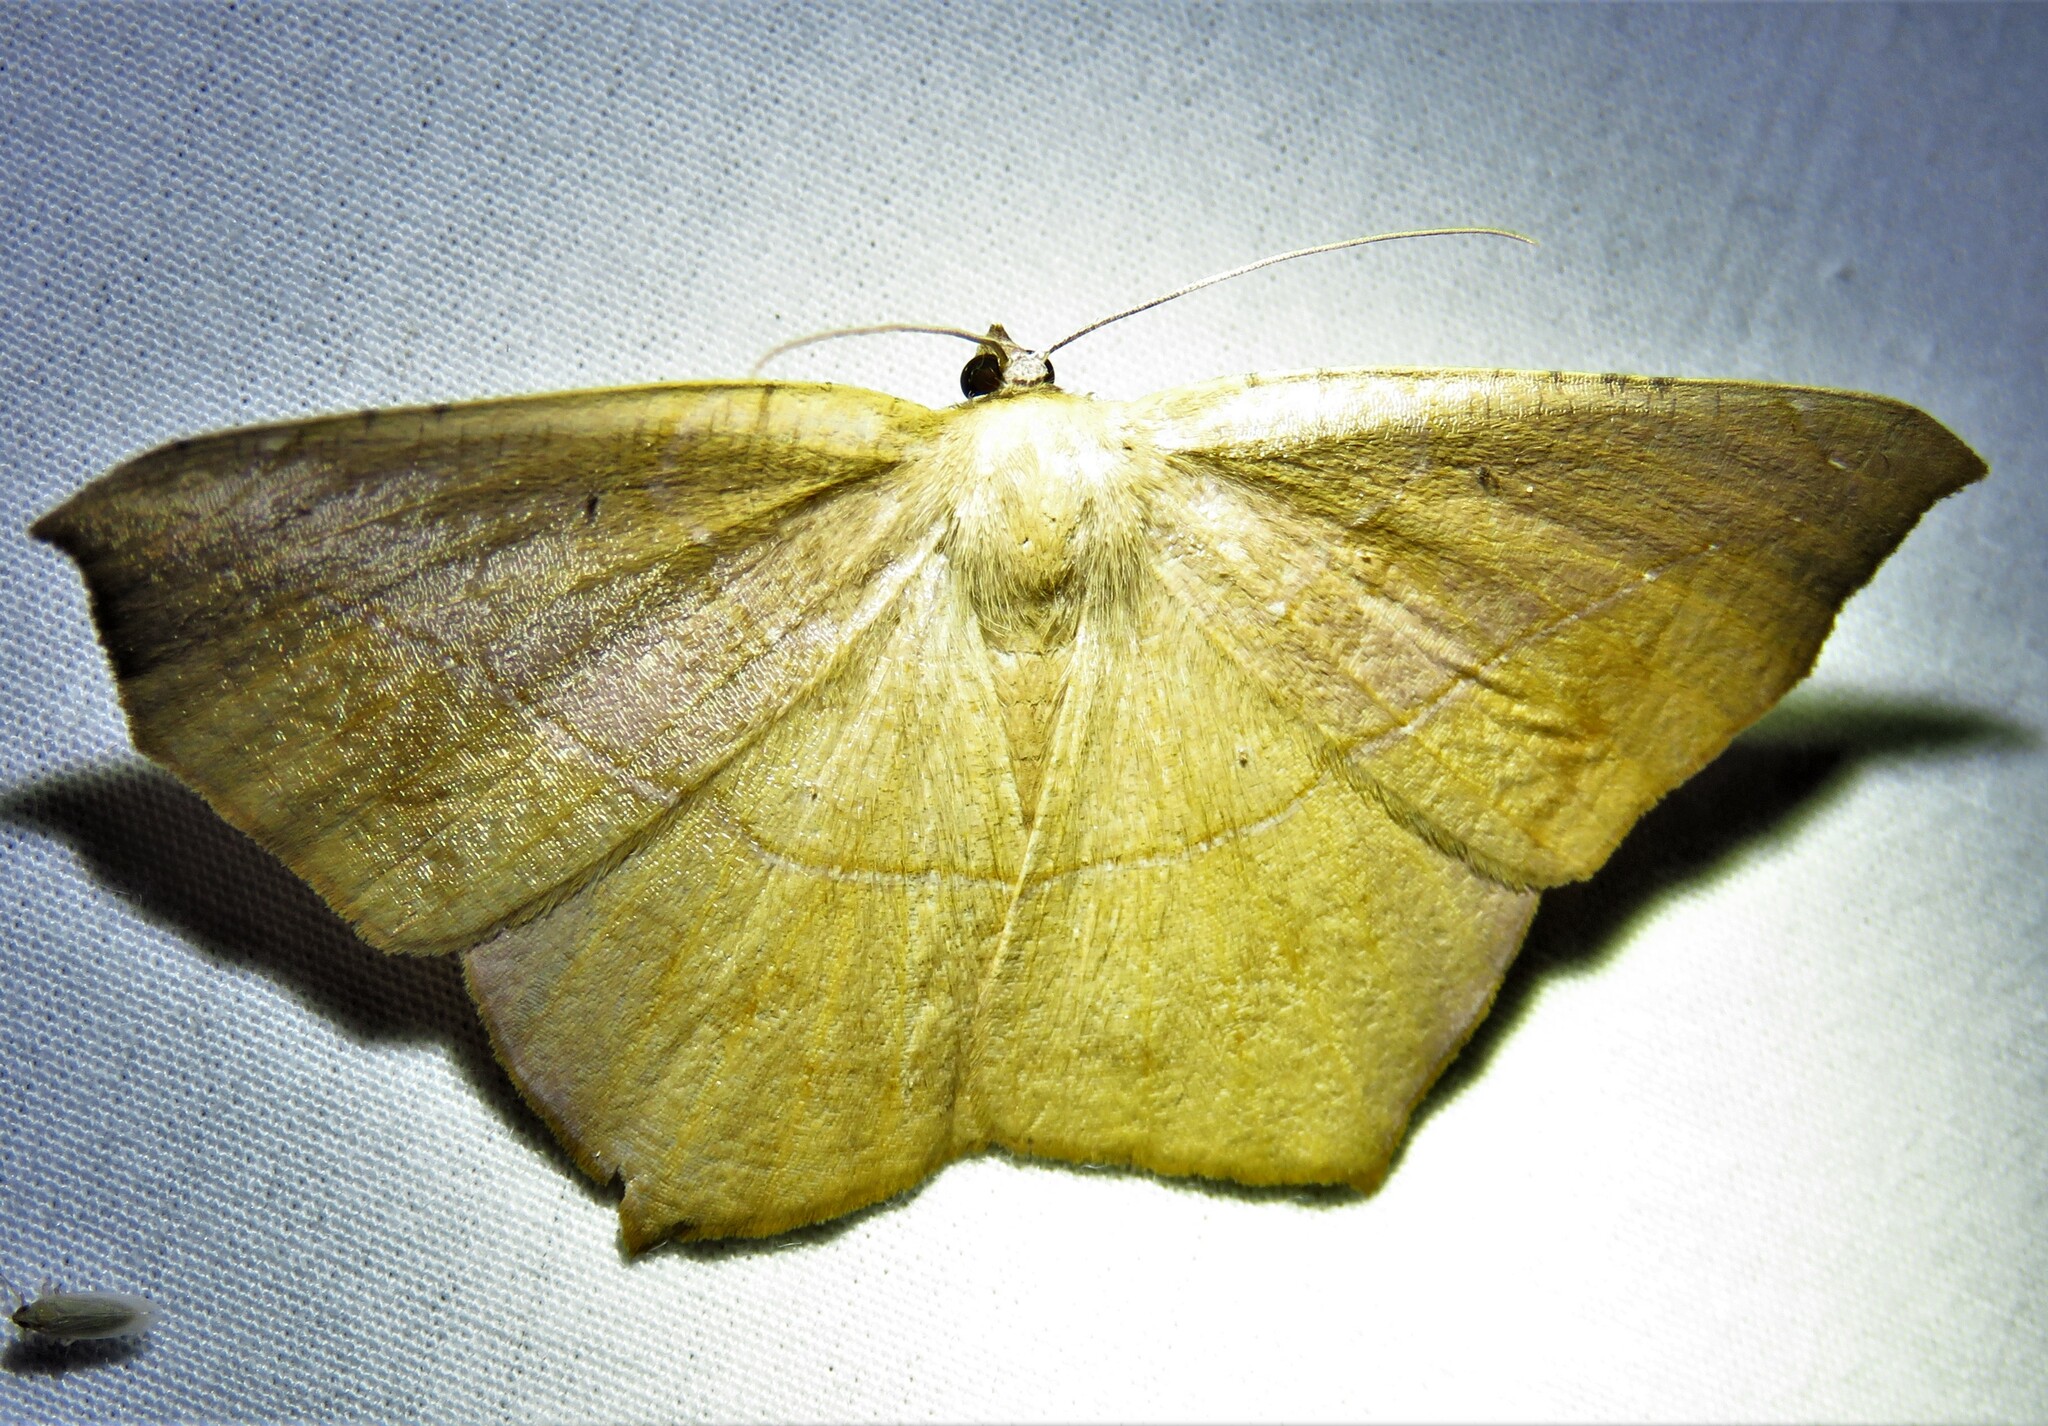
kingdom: Animalia
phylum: Arthropoda
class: Insecta
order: Lepidoptera
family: Geometridae
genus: Prochoerodes
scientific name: Prochoerodes lineola
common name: Large maple spanworm
